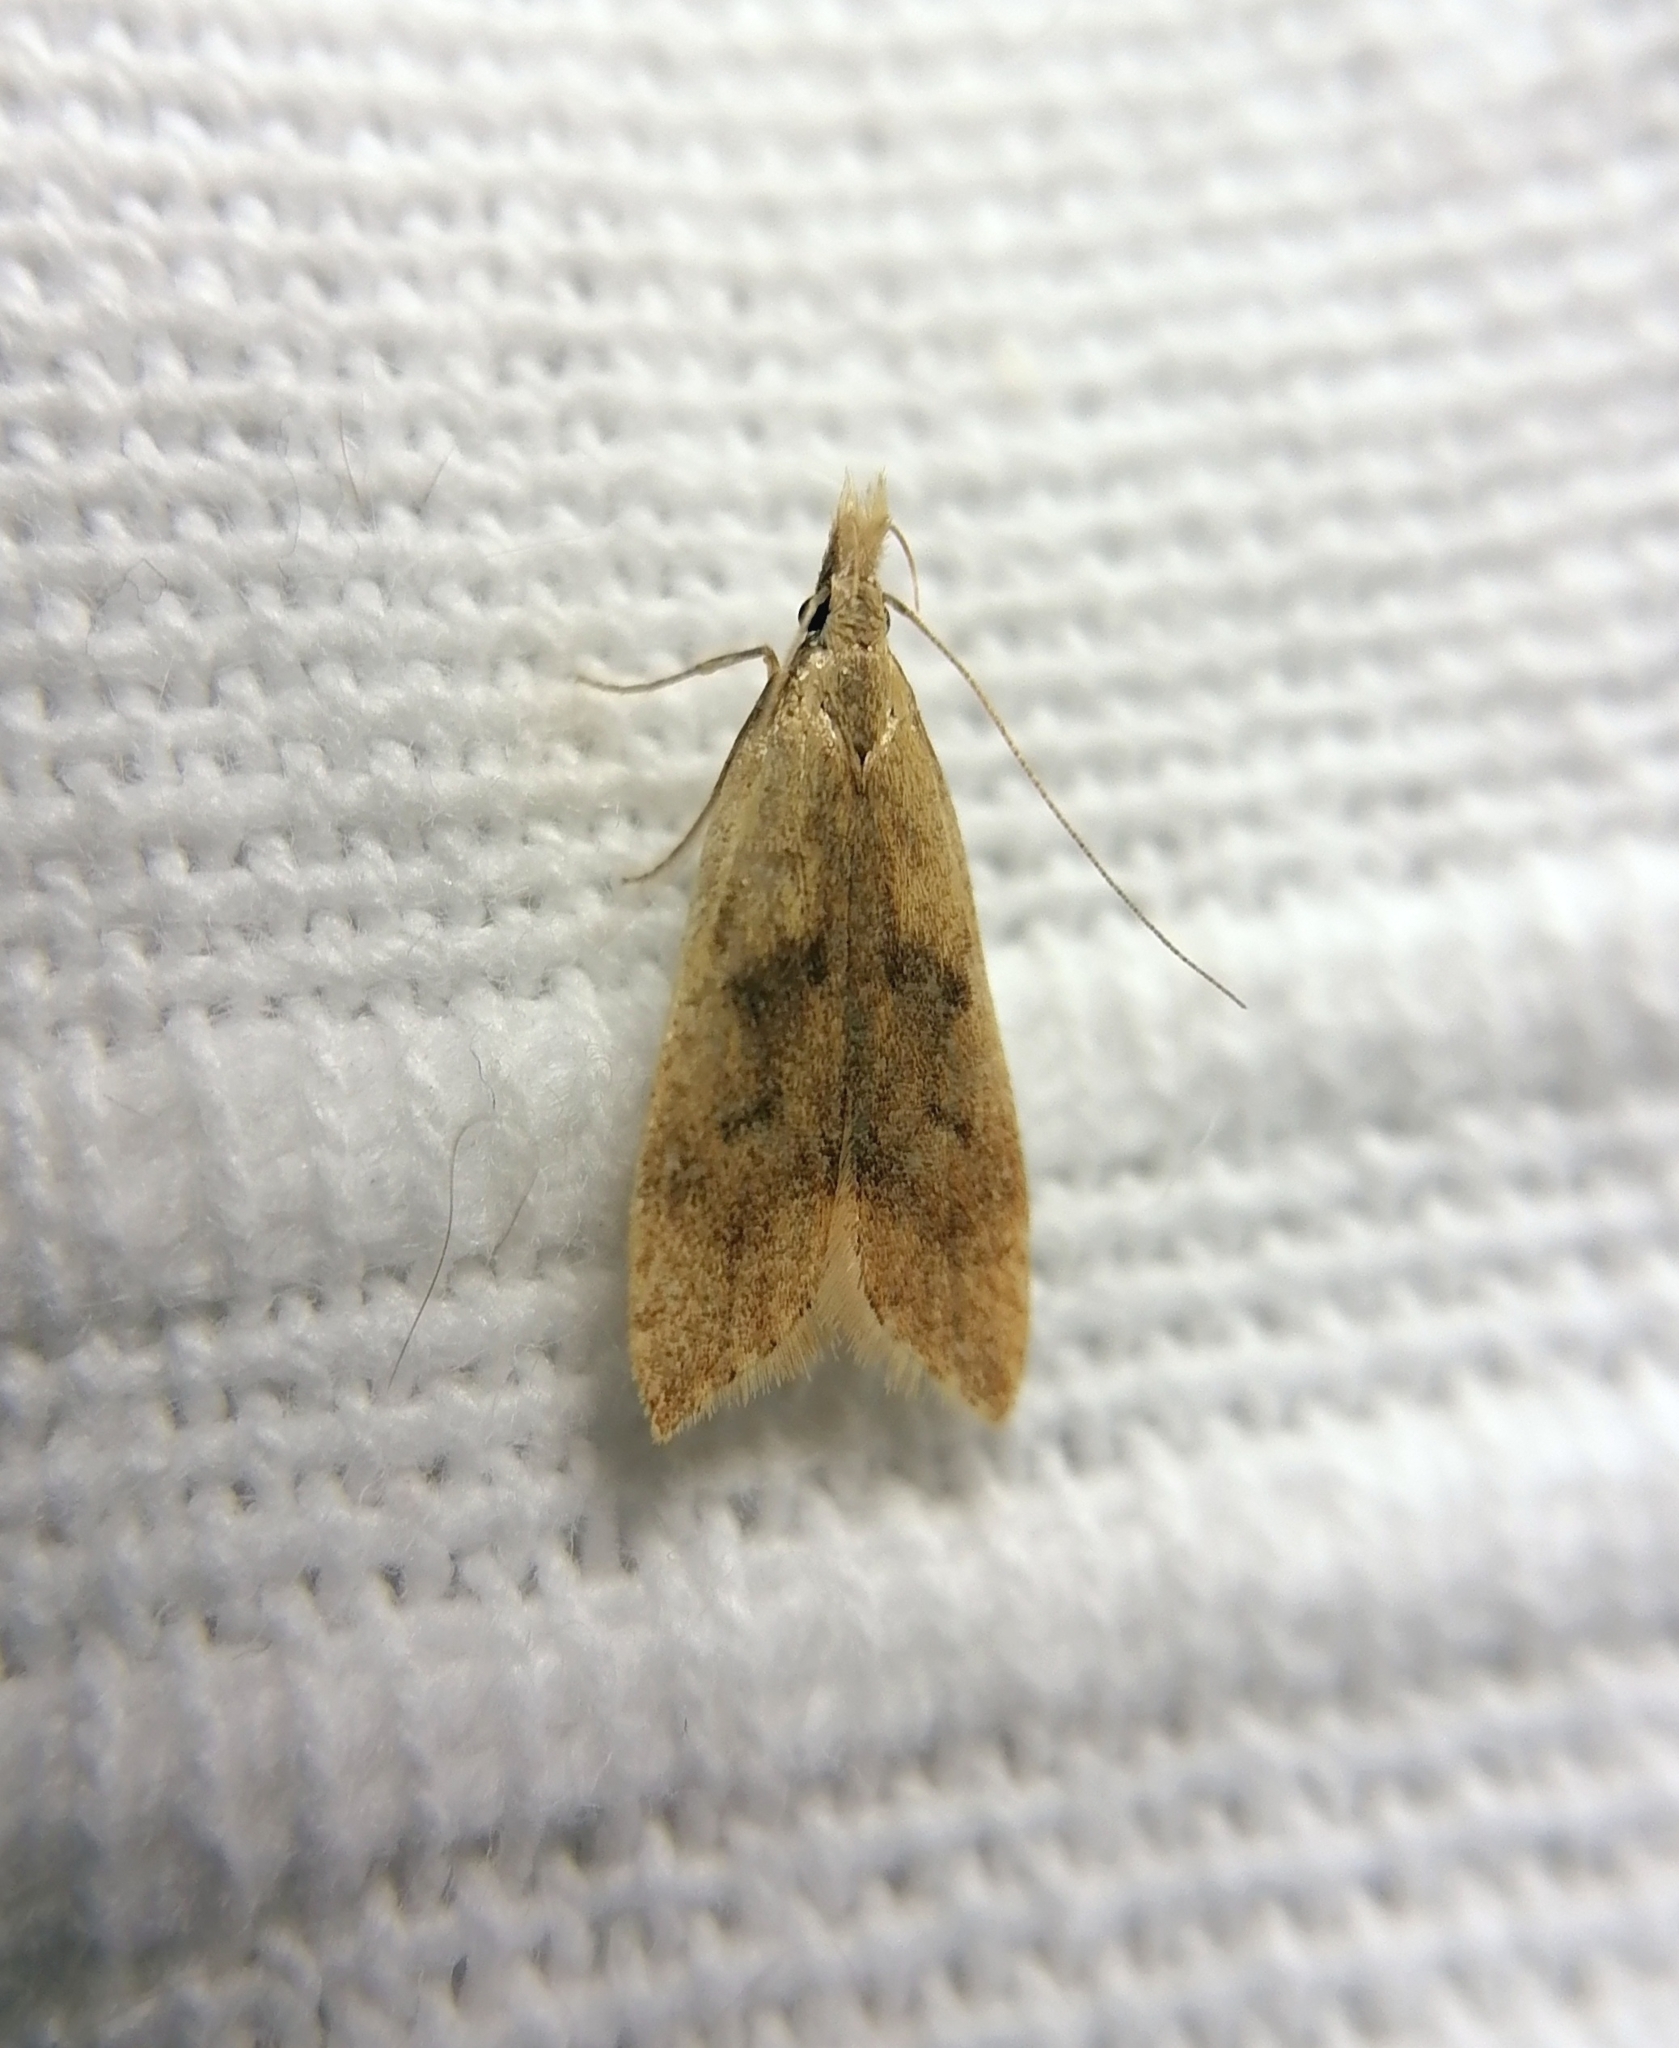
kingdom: Animalia
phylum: Arthropoda
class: Insecta
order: Lepidoptera
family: Gelechiidae
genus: Dichomeris
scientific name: Dichomeris derasella
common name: Blackthorn crest
